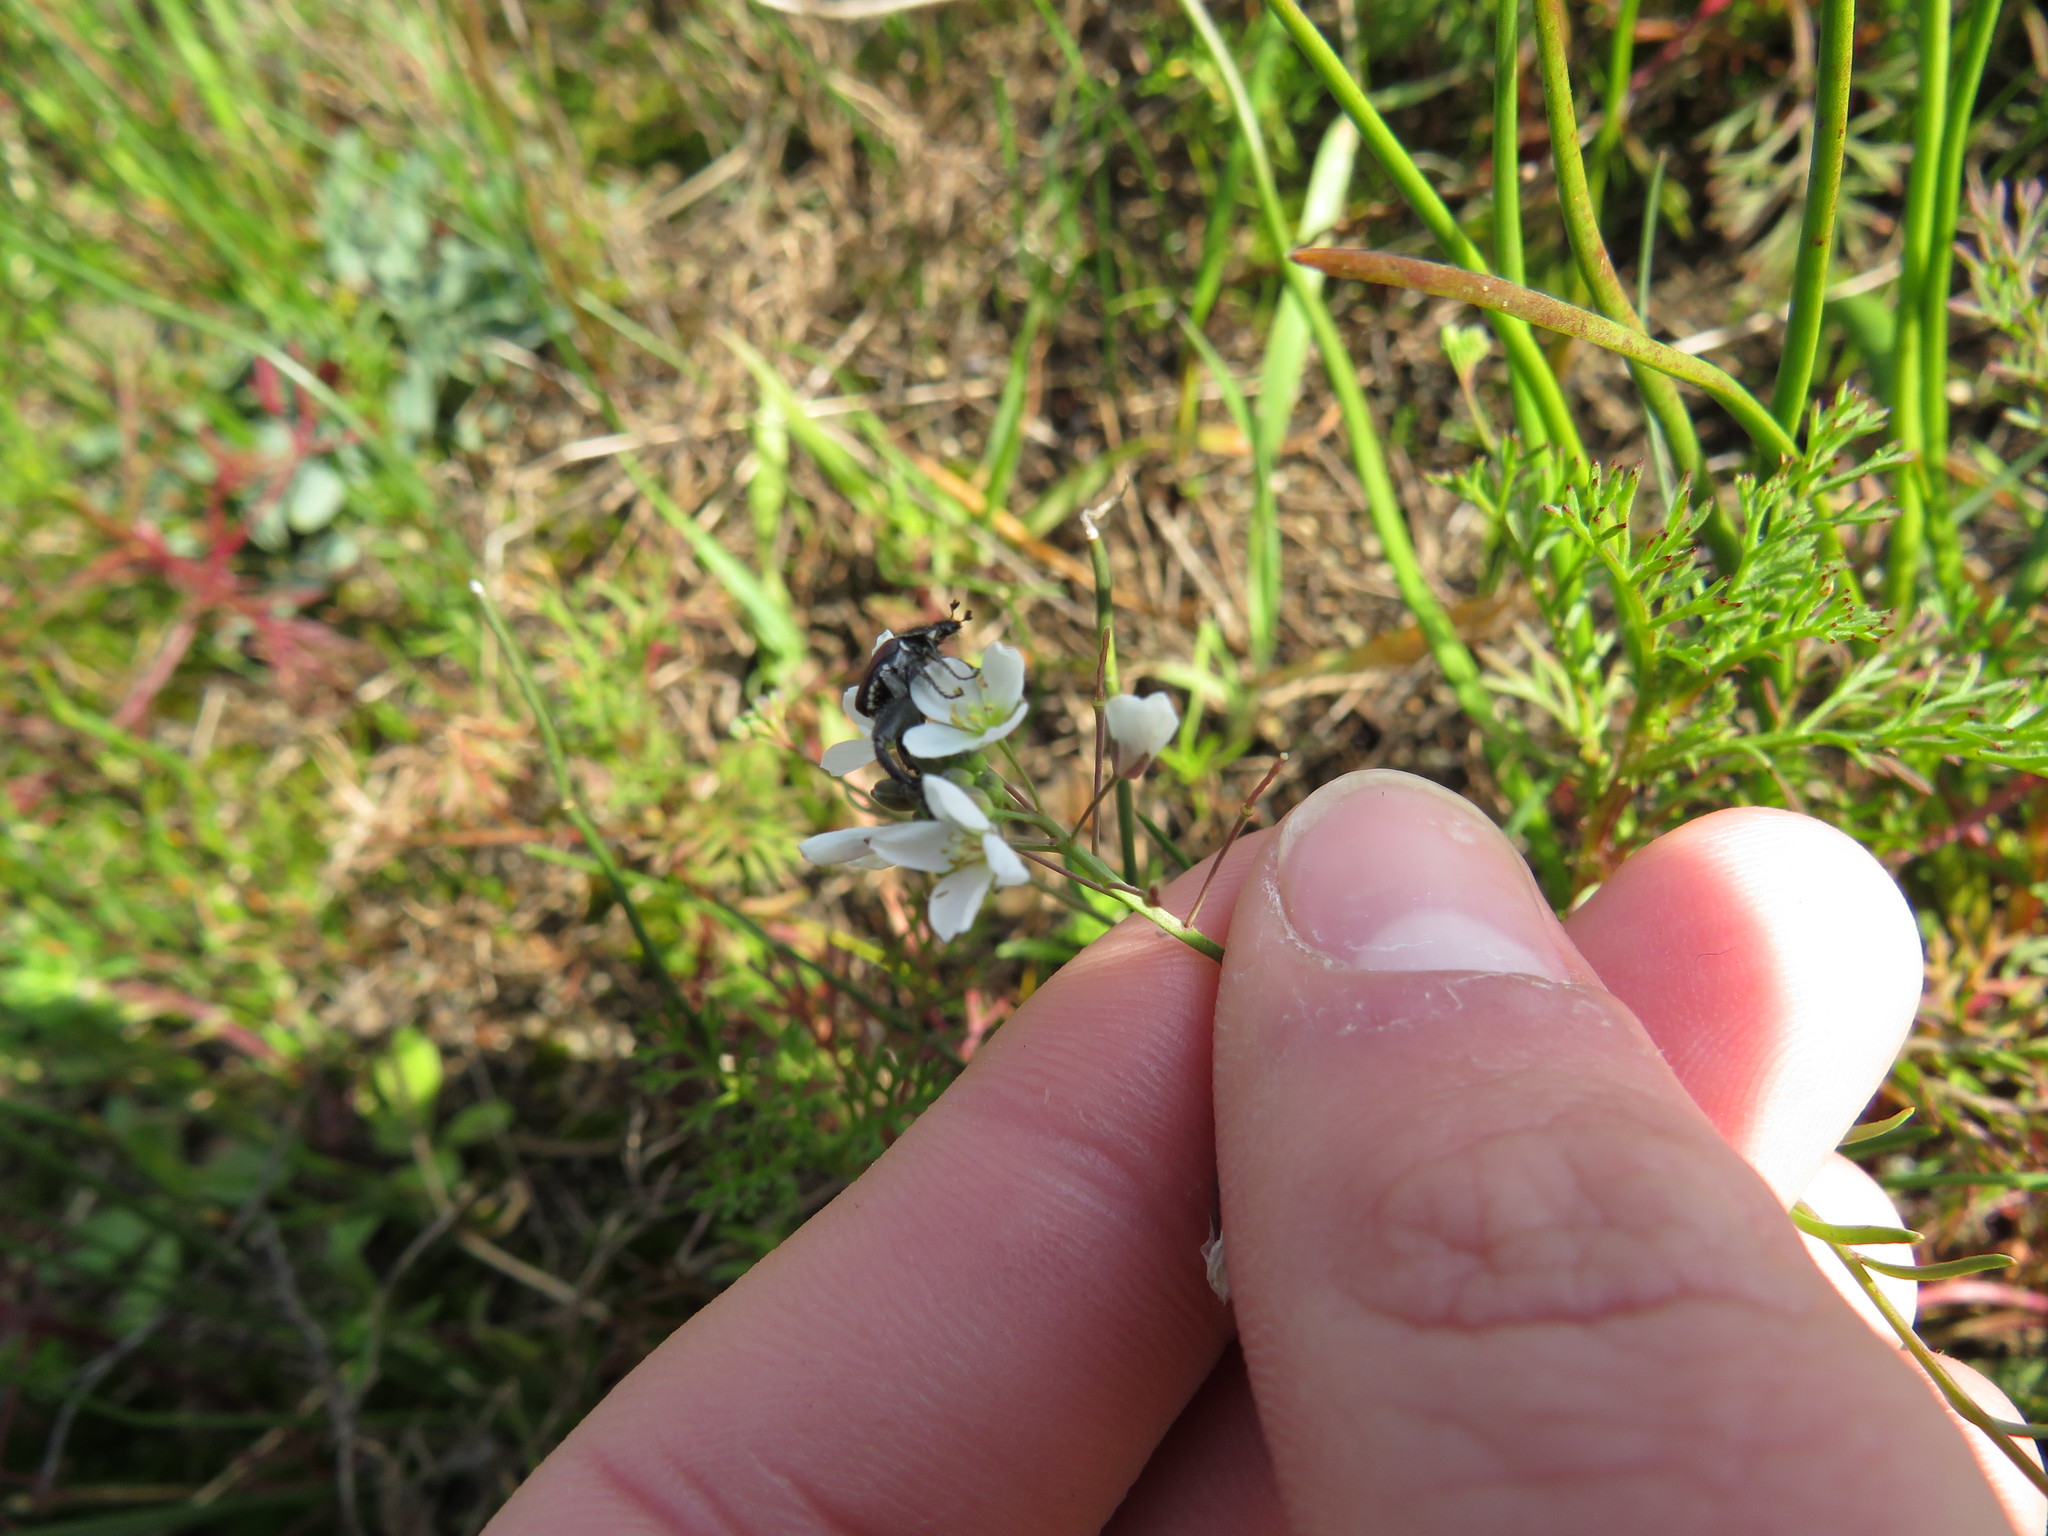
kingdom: Plantae
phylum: Tracheophyta
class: Magnoliopsida
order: Brassicales
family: Brassicaceae
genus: Heliophila
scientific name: Heliophila pusilla
